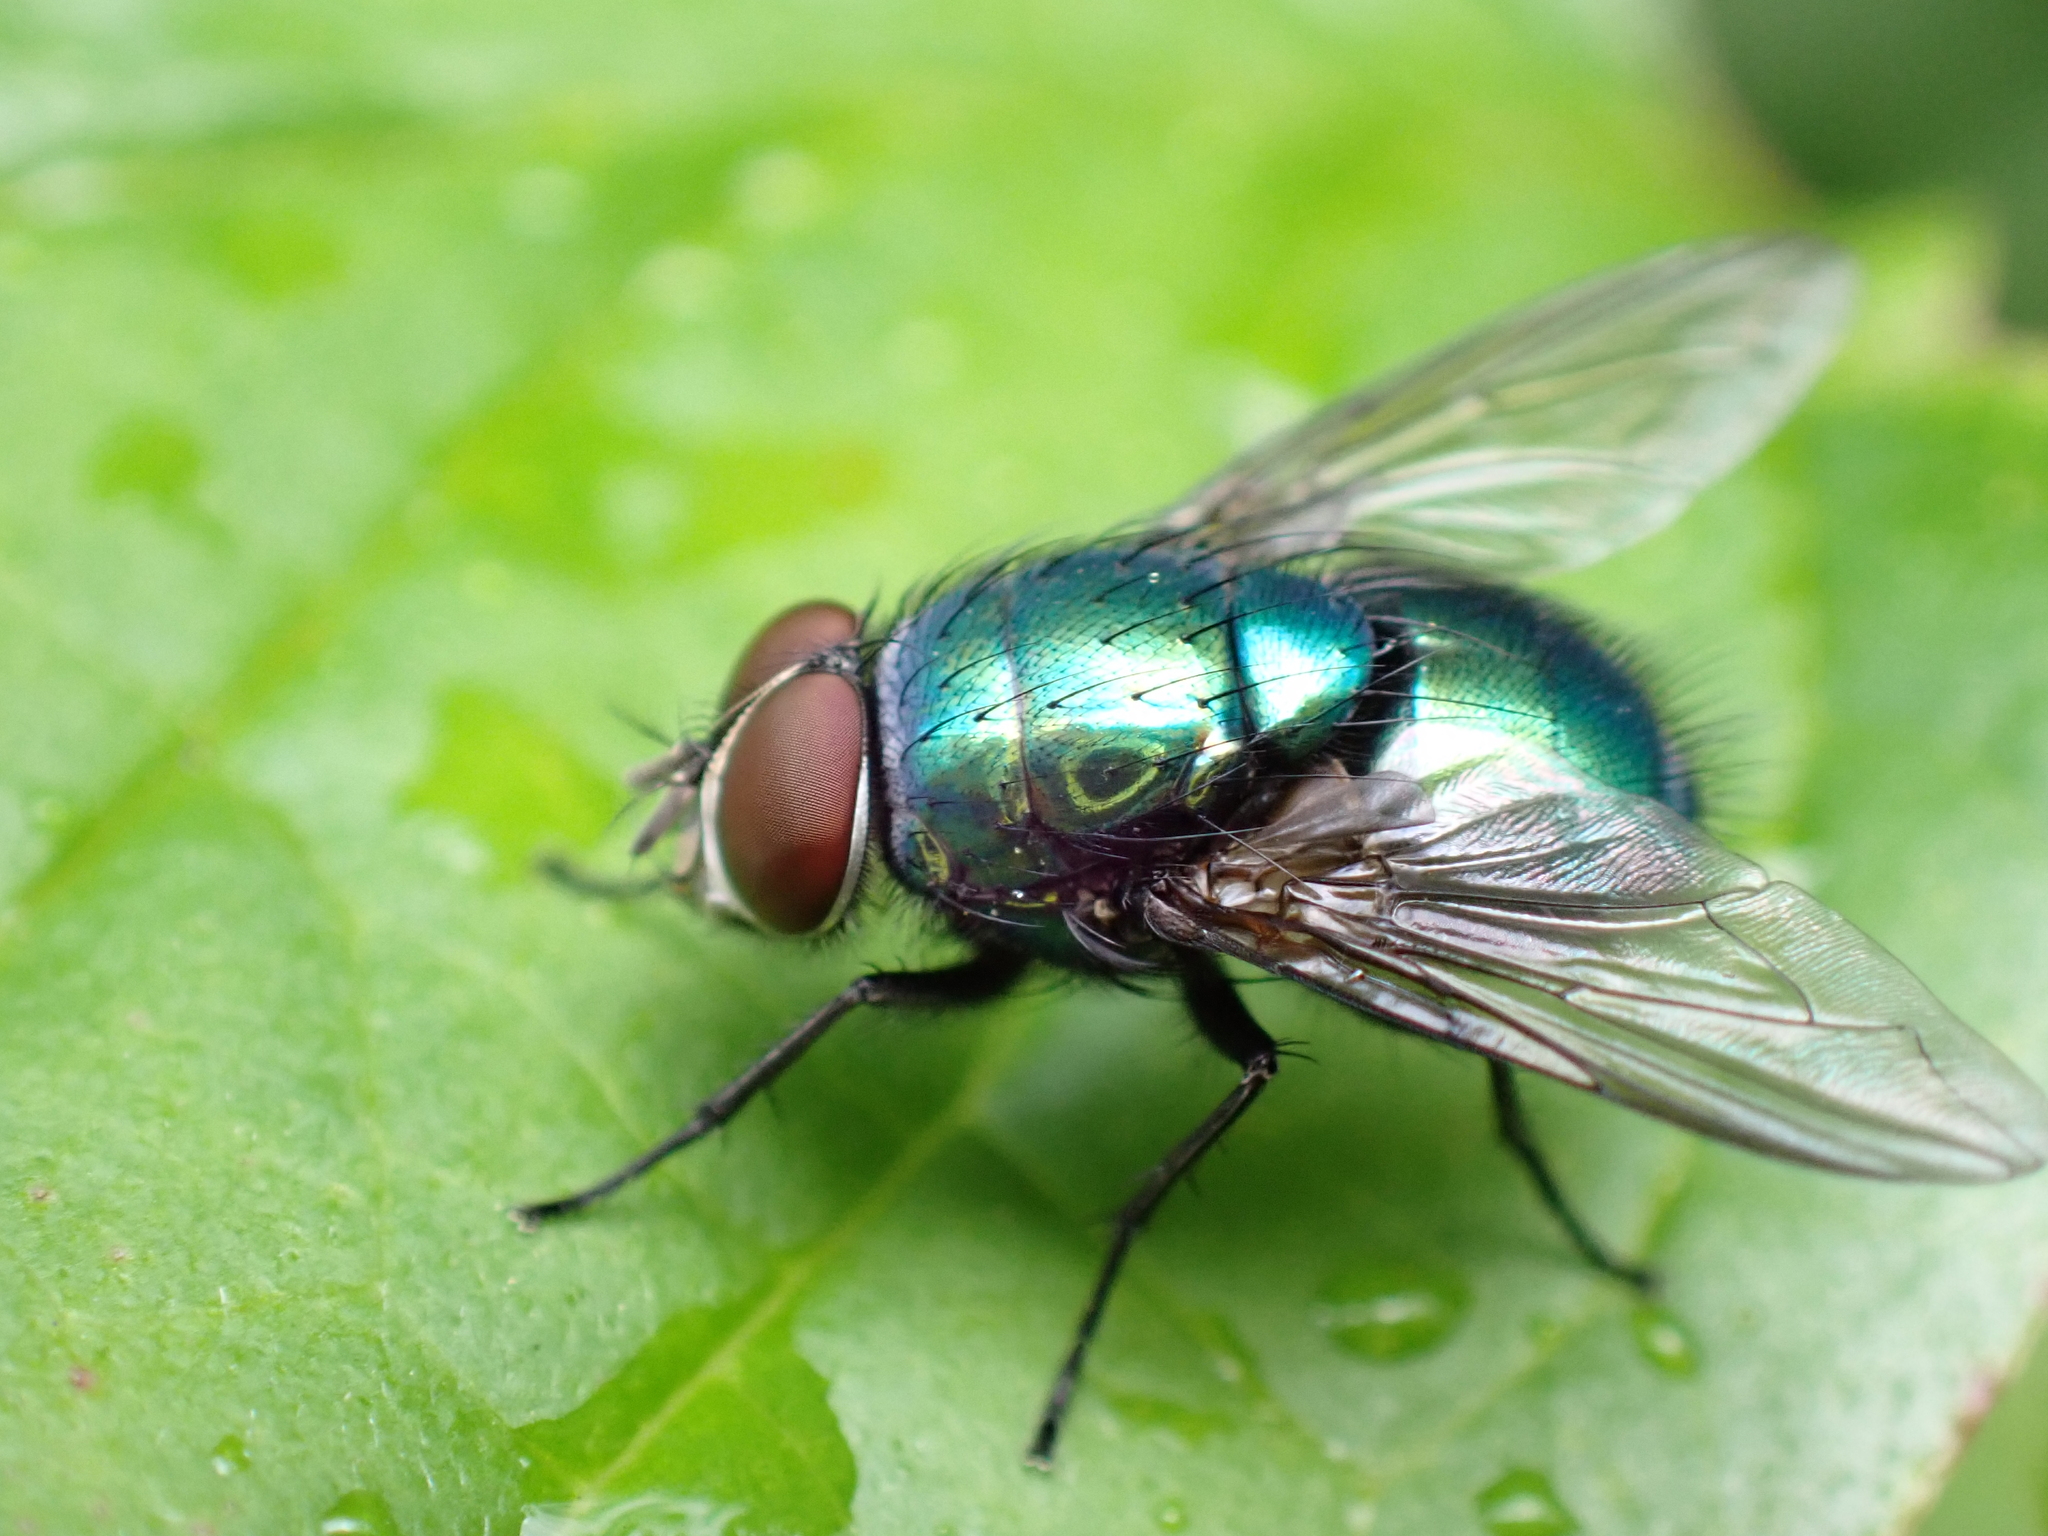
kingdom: Animalia
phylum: Arthropoda
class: Insecta
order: Diptera
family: Calliphoridae
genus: Lucilia
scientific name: Lucilia
